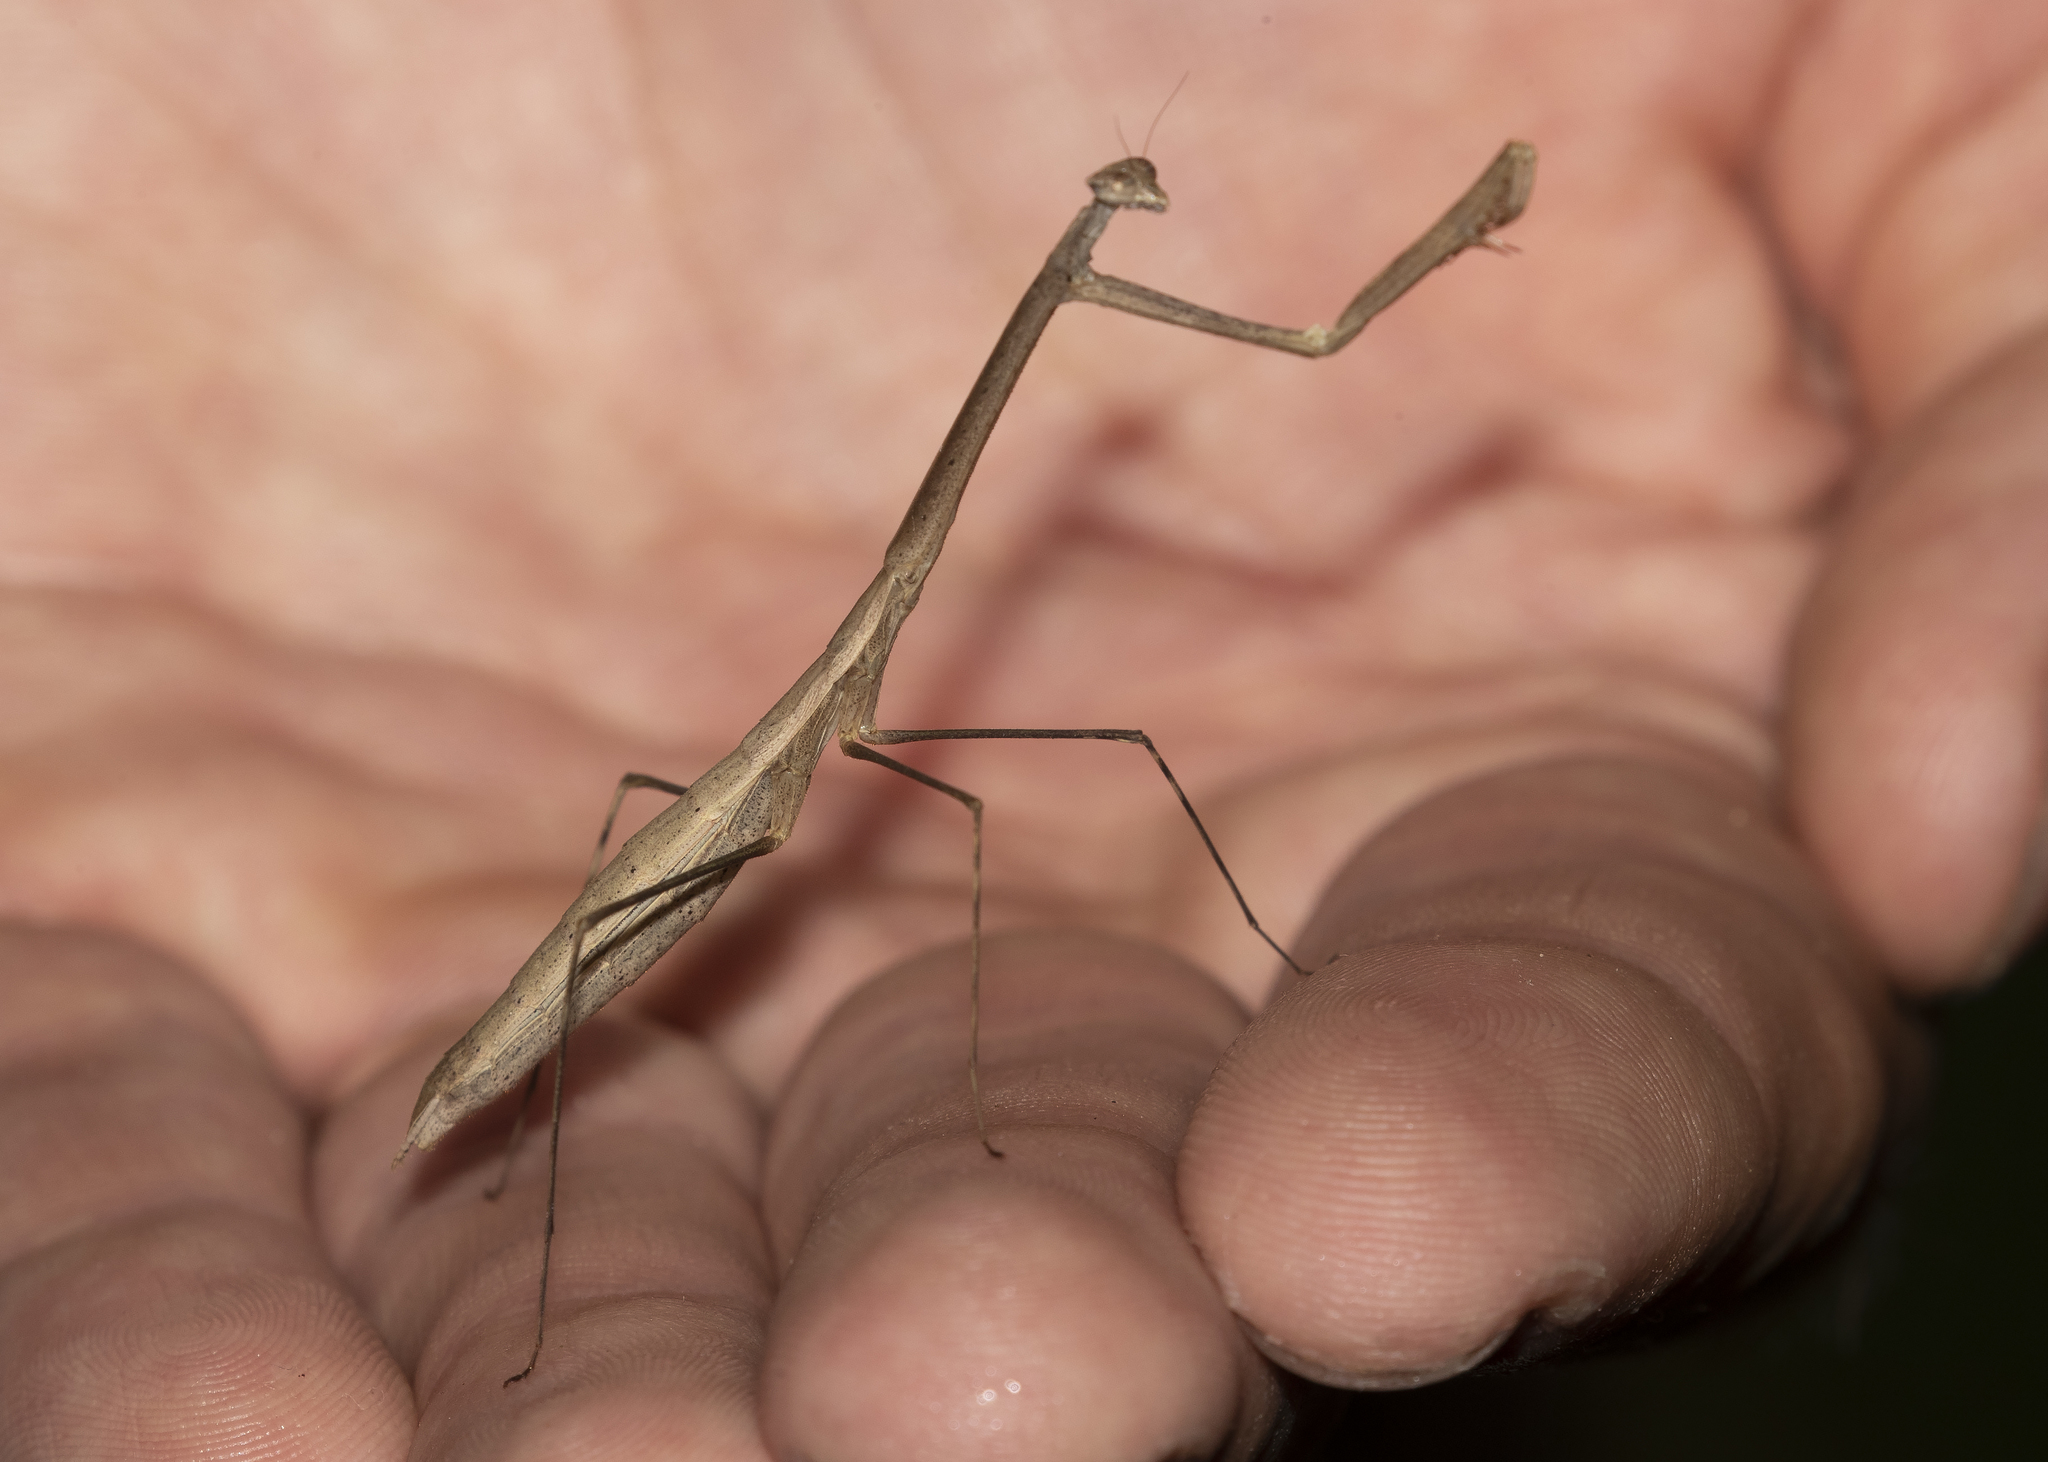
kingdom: Animalia
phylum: Arthropoda
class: Insecta
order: Mantodea
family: Thespidae
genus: Macromusonia
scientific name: Macromusonia conspersa
